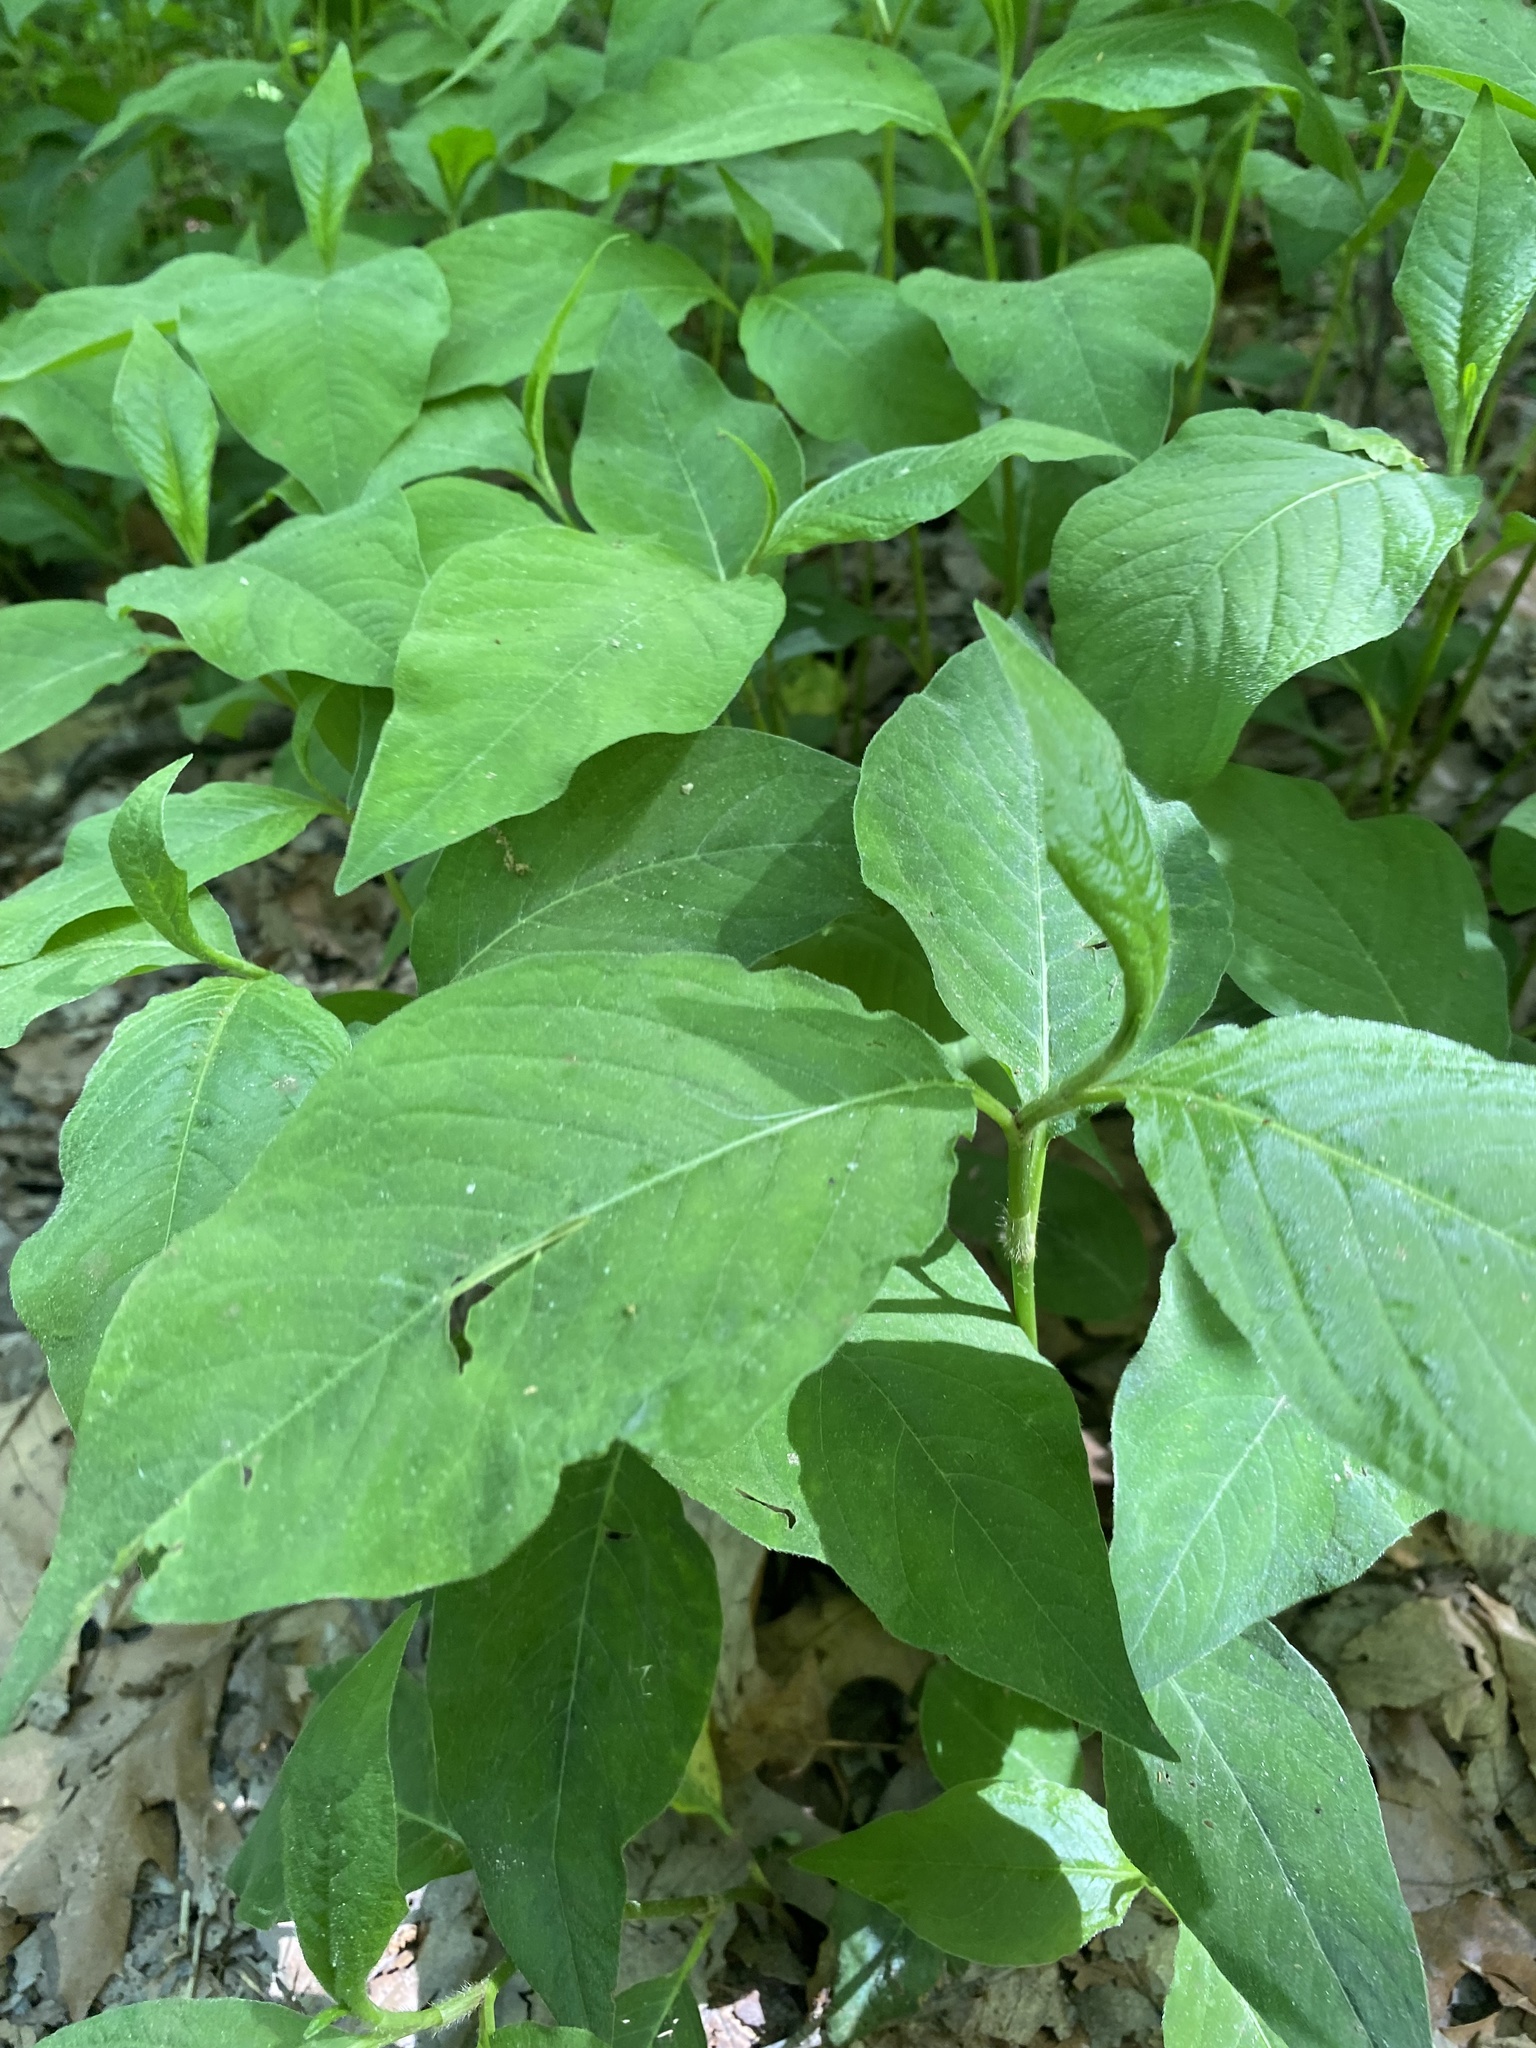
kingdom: Plantae
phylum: Tracheophyta
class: Magnoliopsida
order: Caryophyllales
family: Polygonaceae
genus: Persicaria
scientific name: Persicaria virginiana
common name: Jumpseed
